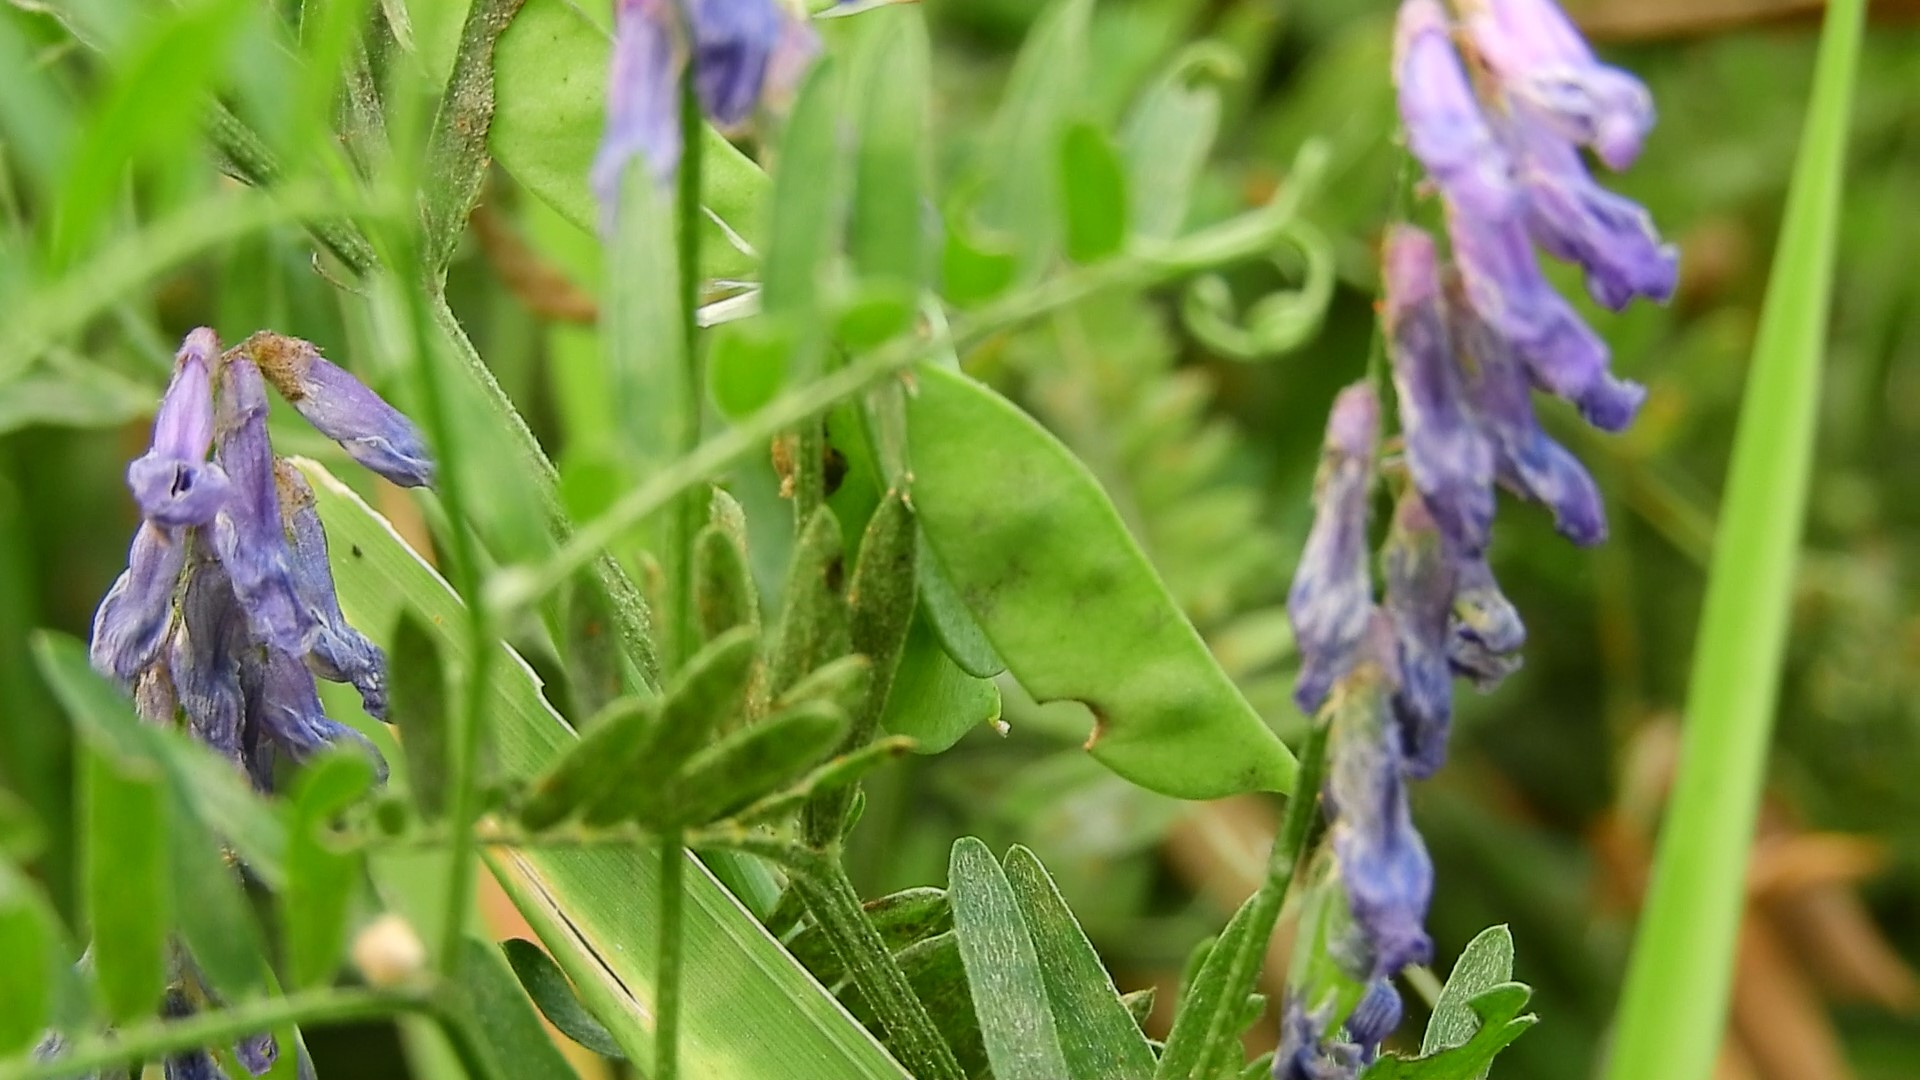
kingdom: Plantae
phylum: Tracheophyta
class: Magnoliopsida
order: Fabales
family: Fabaceae
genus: Vicia
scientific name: Vicia cracca
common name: Bird vetch
